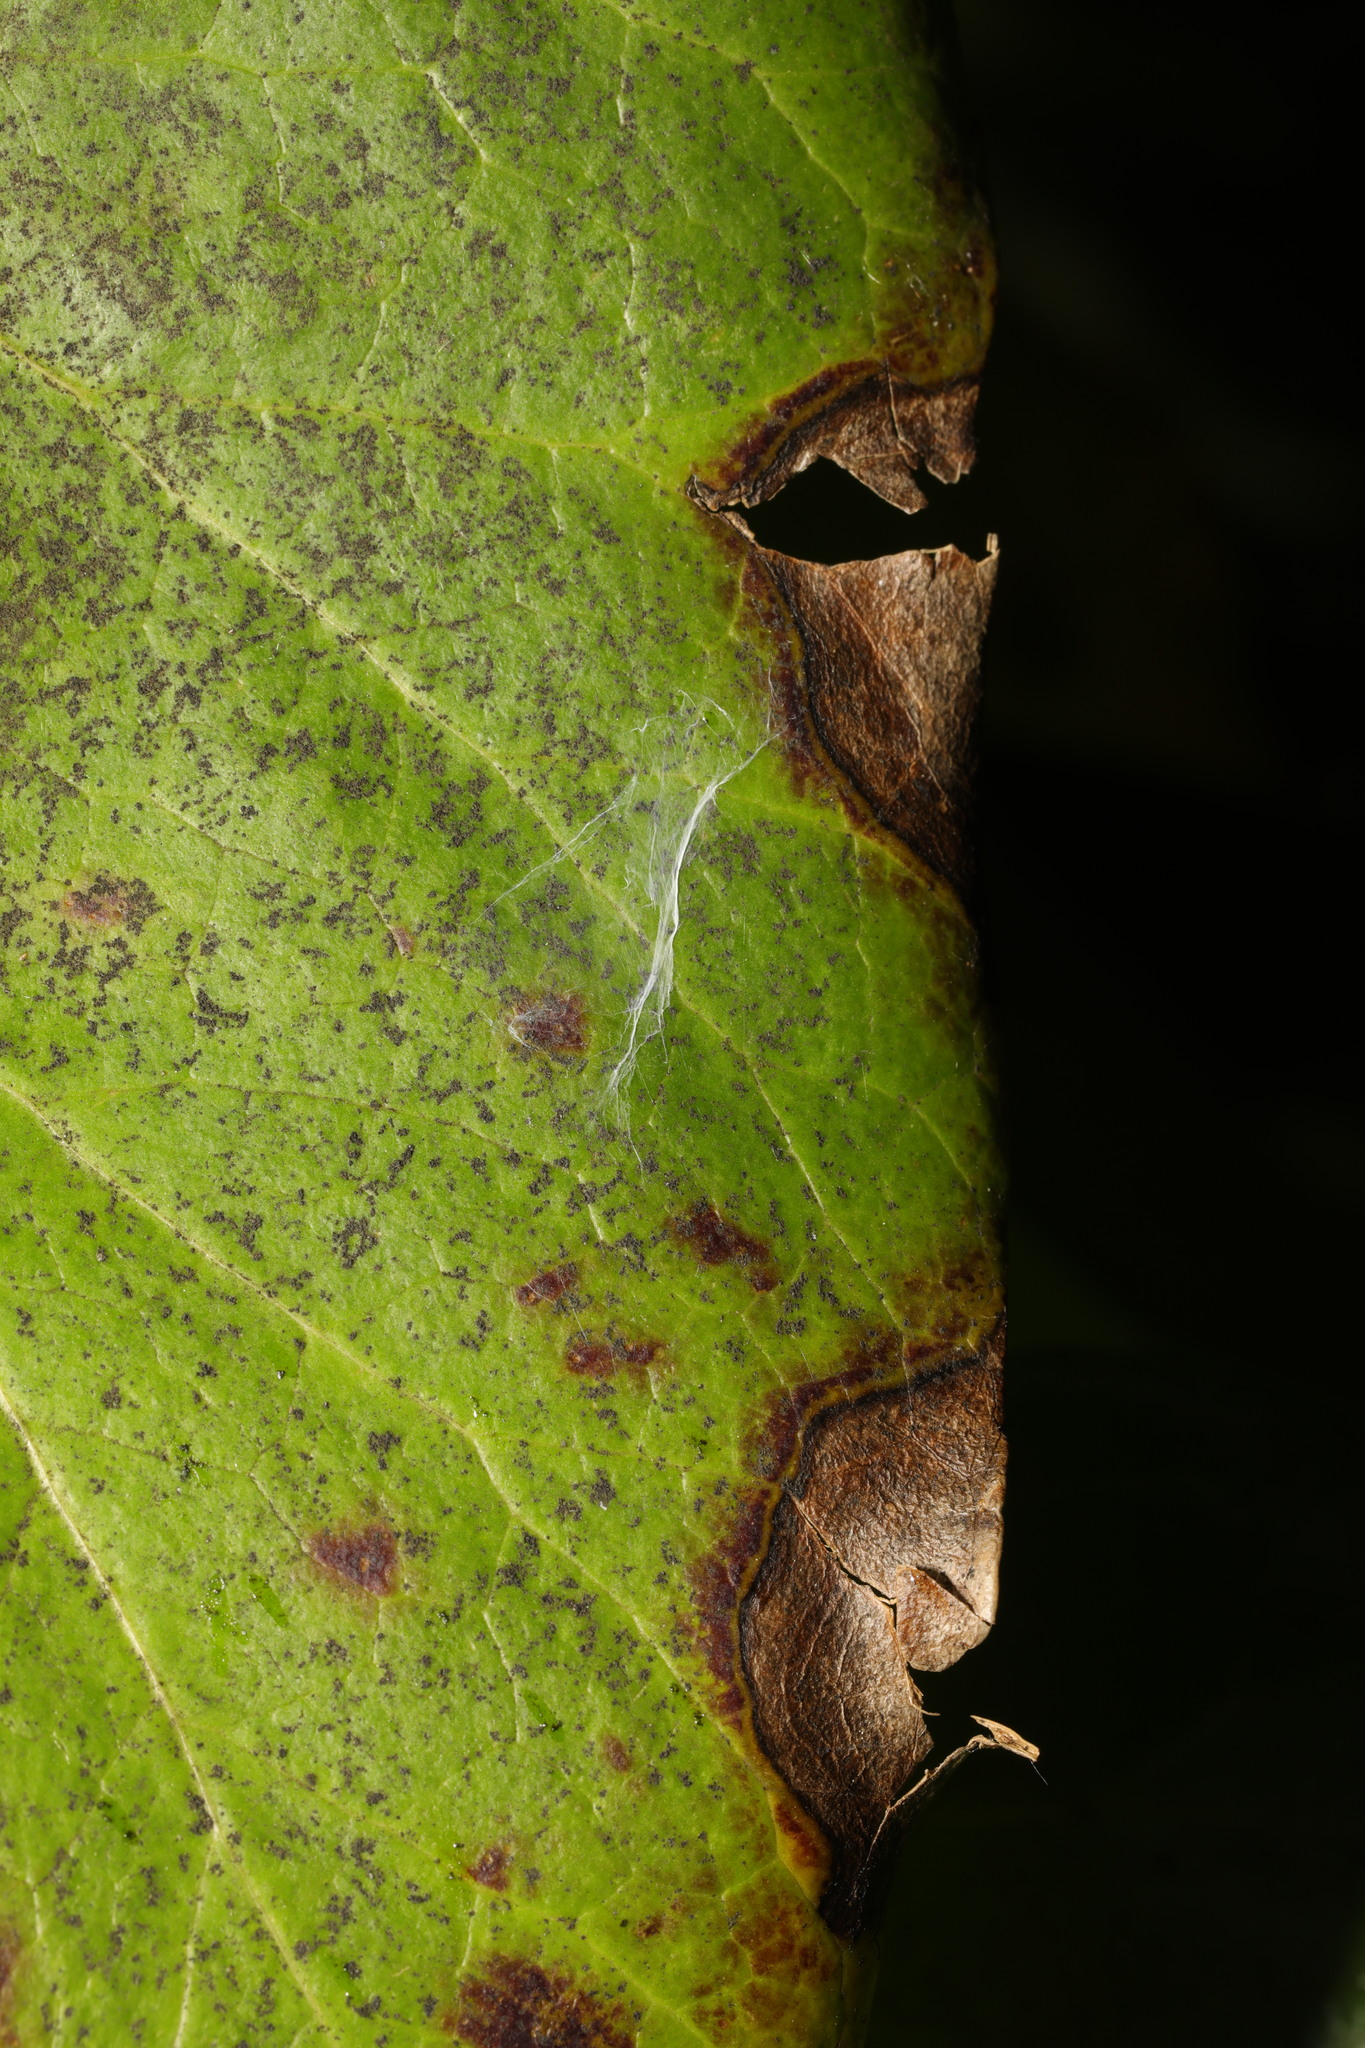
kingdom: Fungi
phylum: Ascomycota
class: Dothideomycetes
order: Pleosporales
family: Didymellaceae
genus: Boeremia
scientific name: Boeremia hedericola
